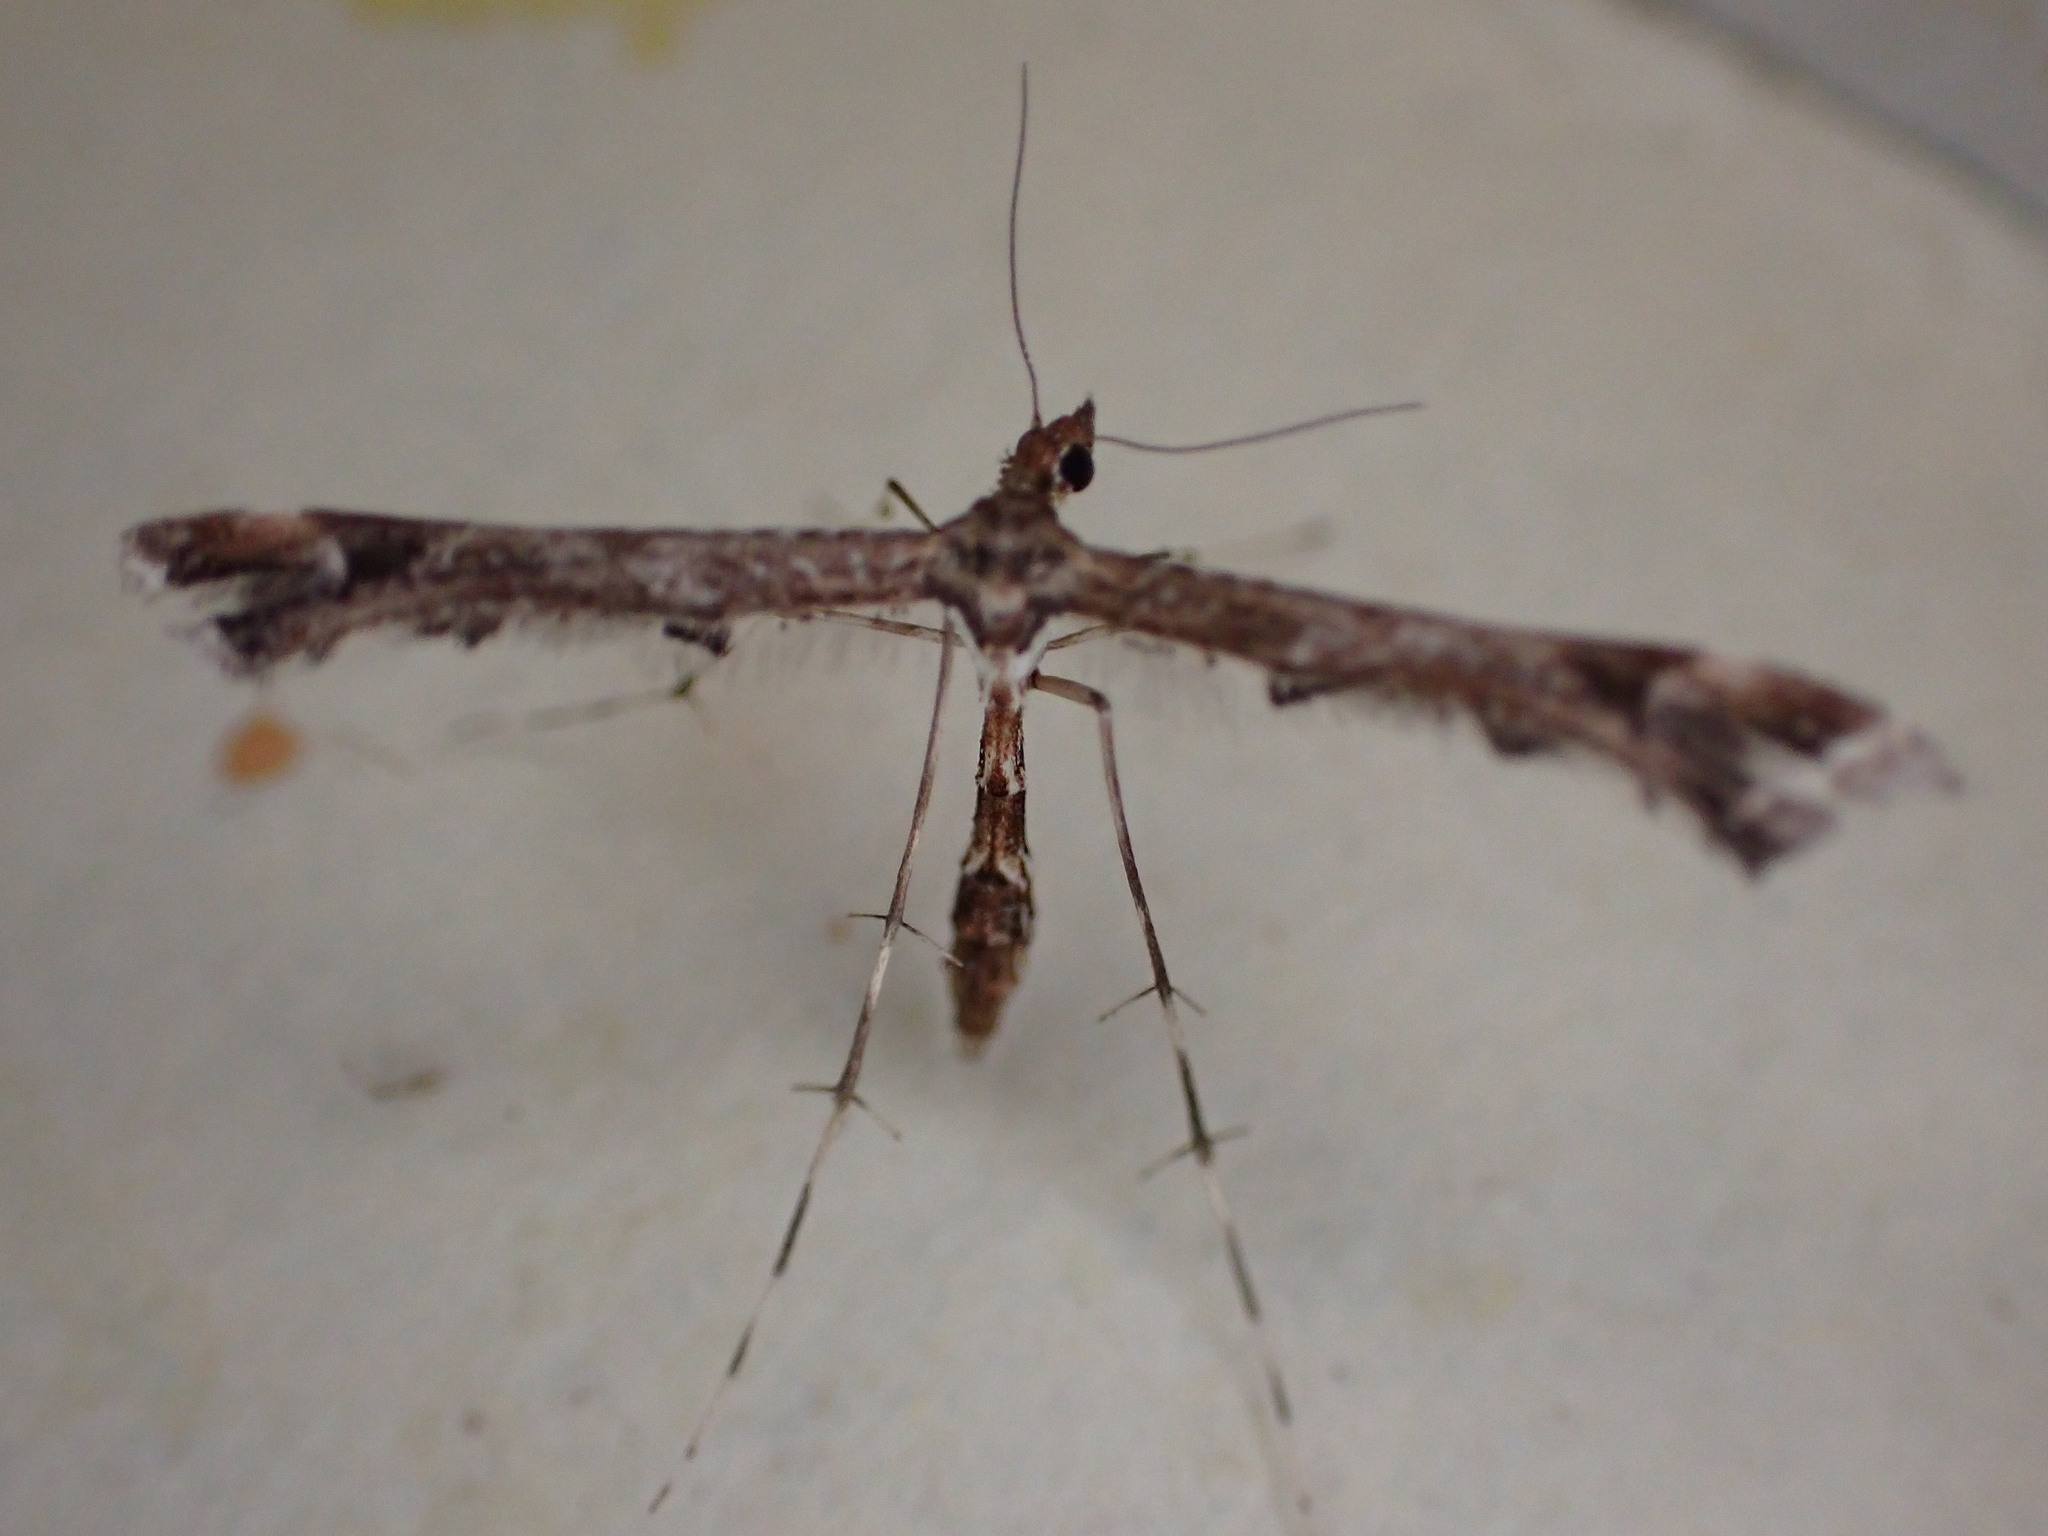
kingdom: Animalia
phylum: Arthropoda
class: Insecta
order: Lepidoptera
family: Pterophoridae
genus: Amblyptilia
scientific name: Amblyptilia acanthadactyla
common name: Beautiful plume
